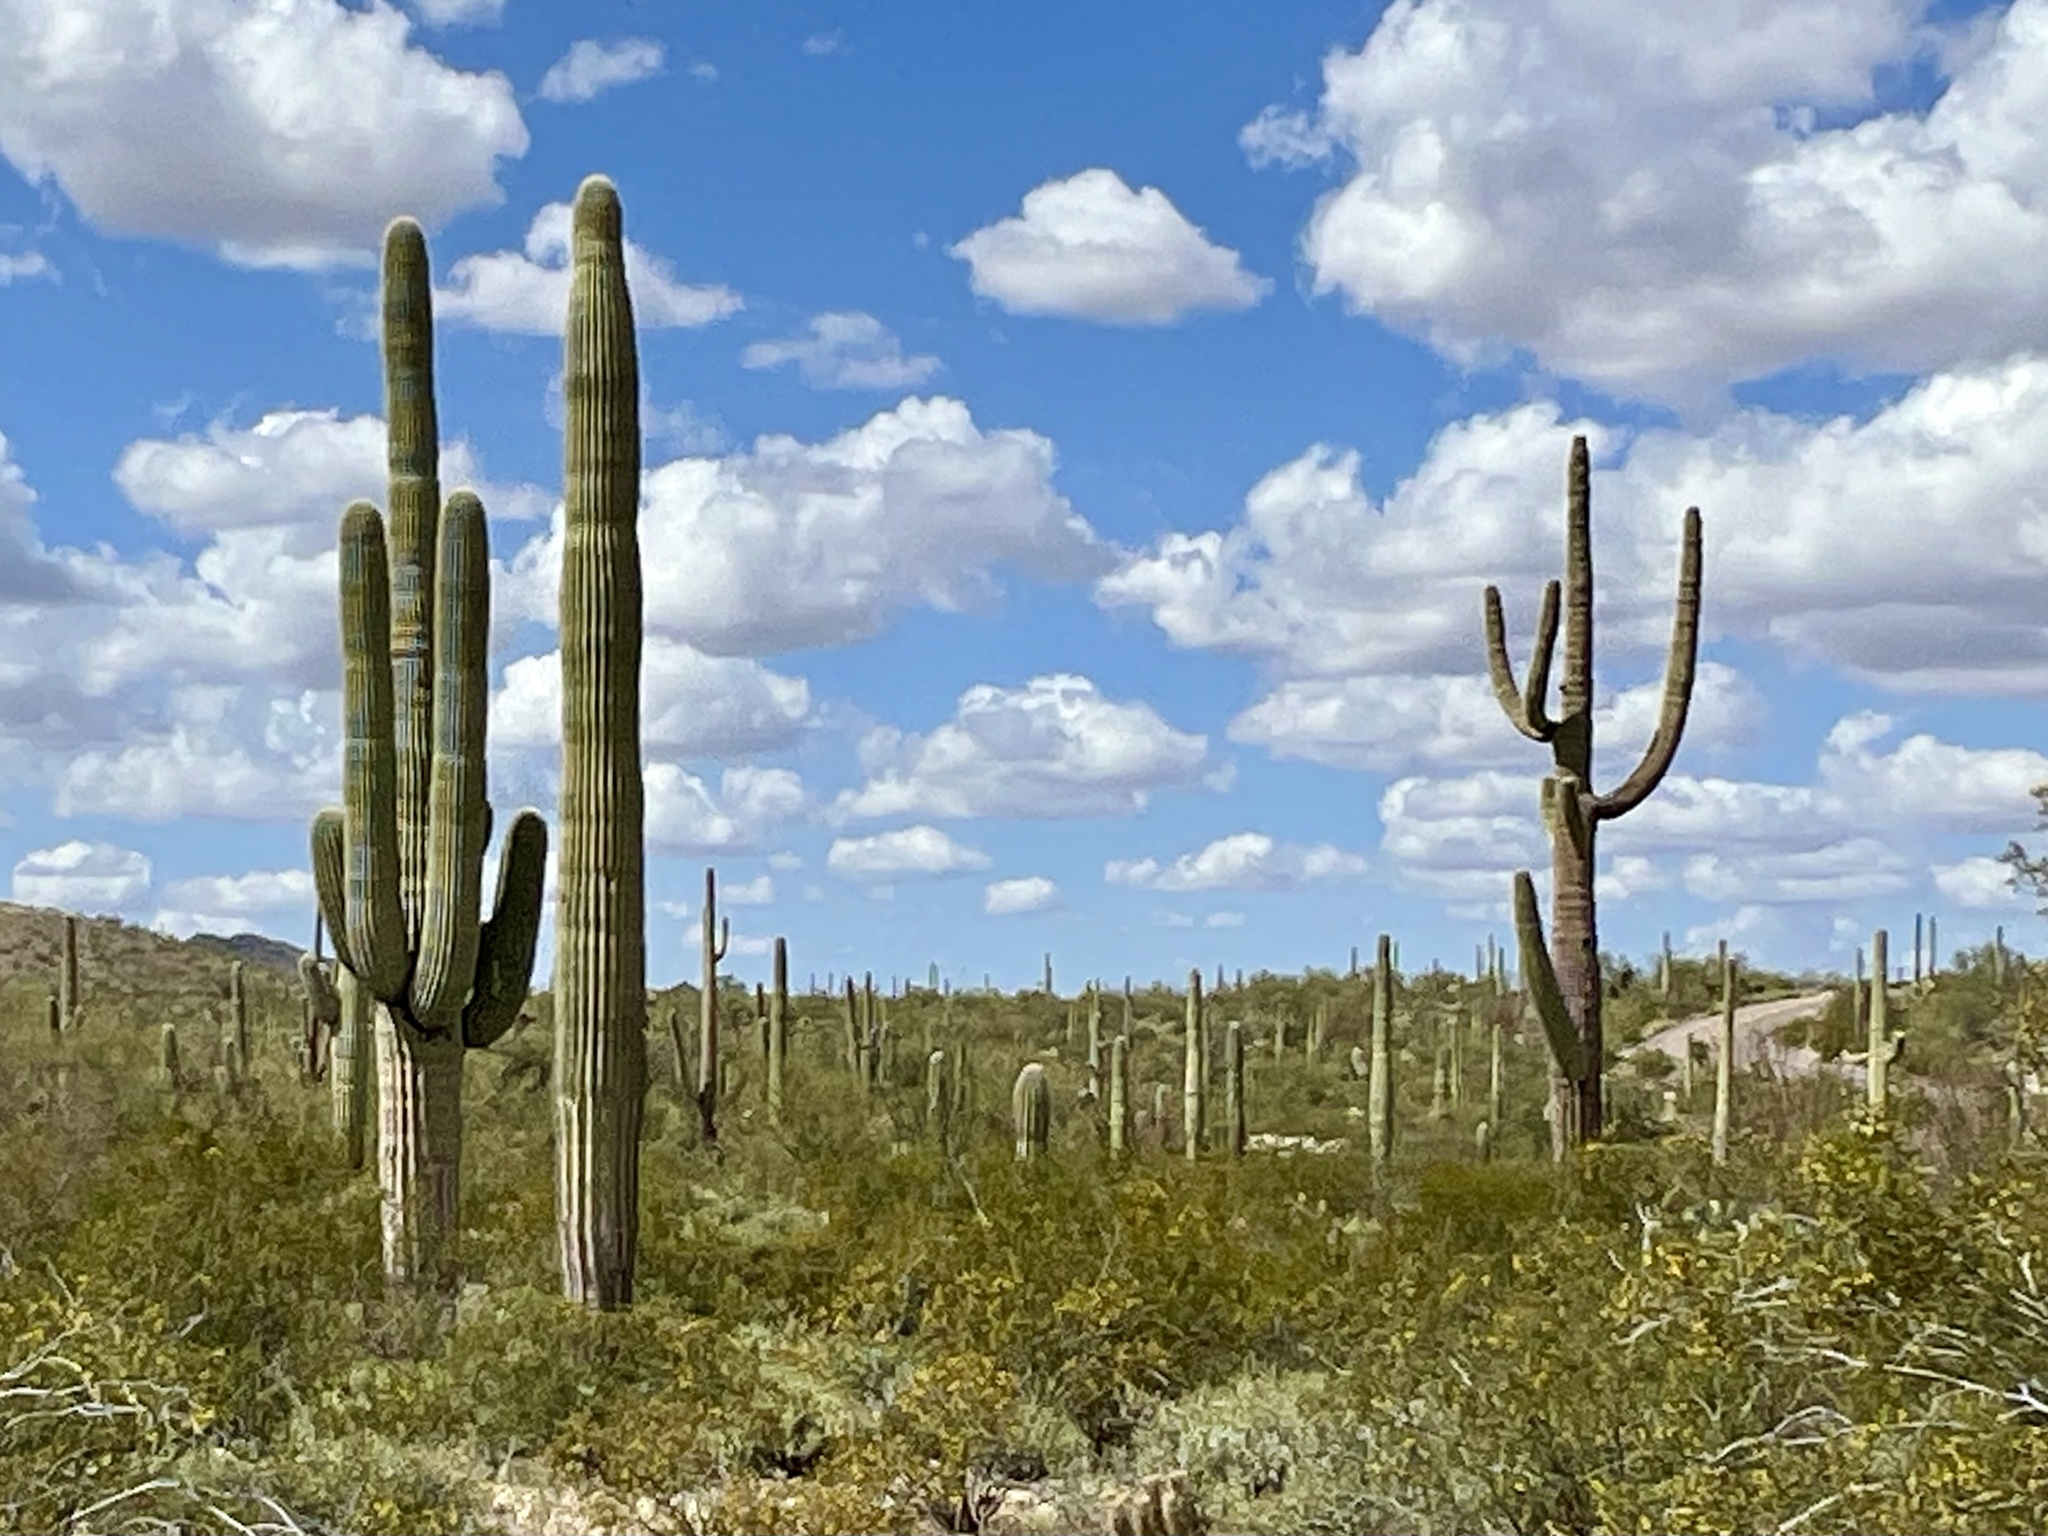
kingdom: Plantae
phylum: Tracheophyta
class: Magnoliopsida
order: Caryophyllales
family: Cactaceae
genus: Carnegiea
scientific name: Carnegiea gigantea
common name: Saguaro
